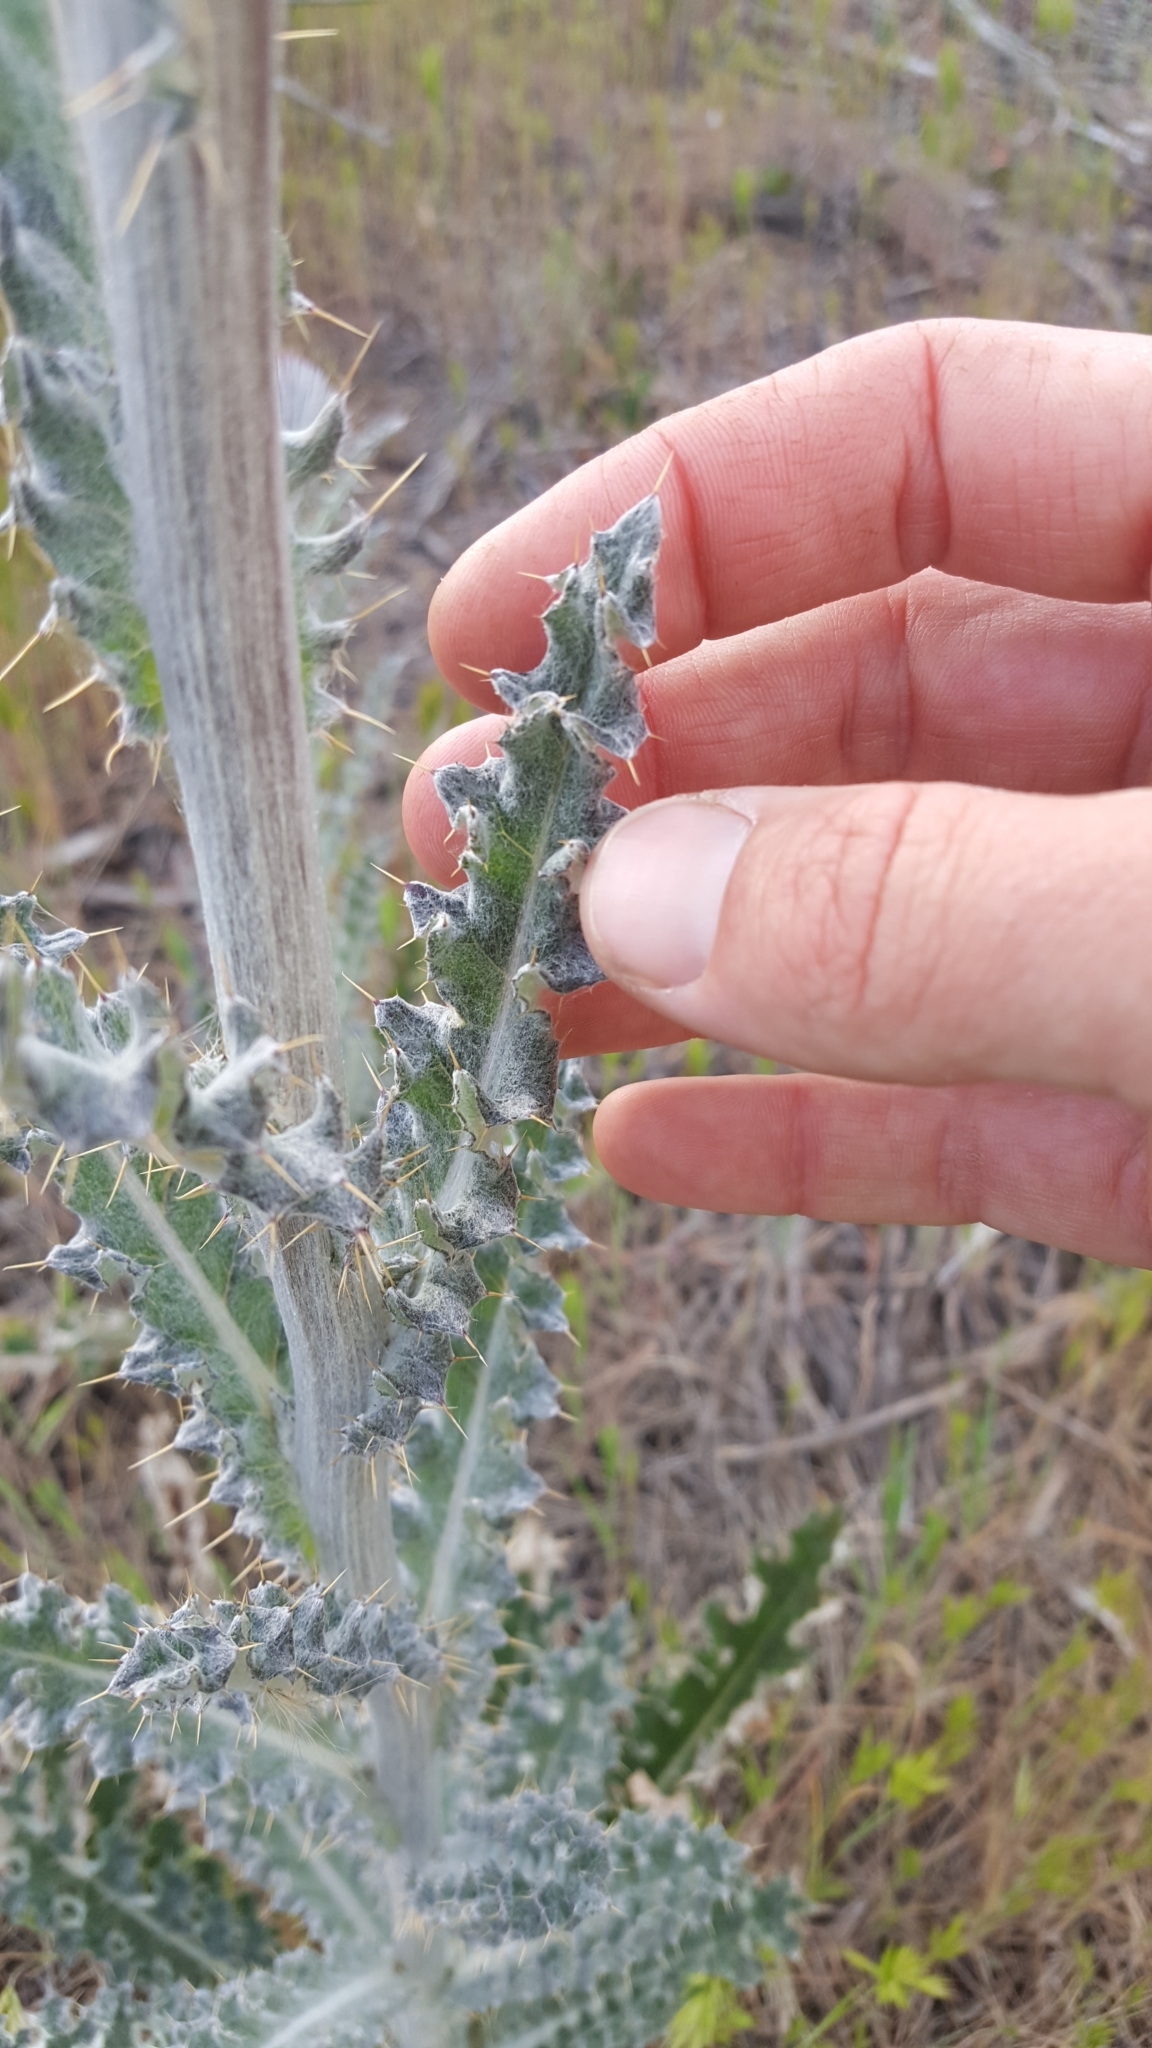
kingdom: Plantae
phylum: Tracheophyta
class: Magnoliopsida
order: Asterales
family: Asteraceae
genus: Cirsium
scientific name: Cirsium occidentale
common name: Western thistle
